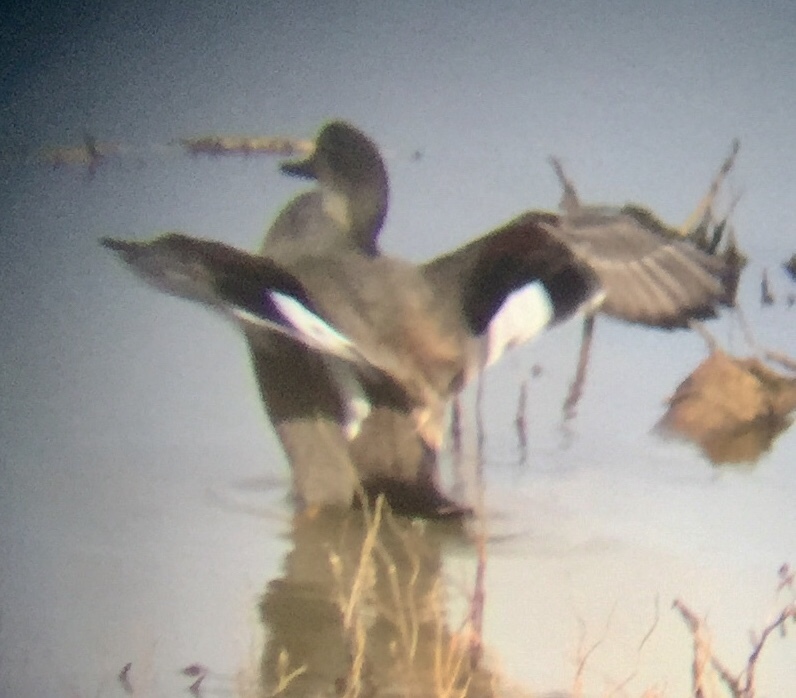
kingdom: Animalia
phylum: Chordata
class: Aves
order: Anseriformes
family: Anatidae
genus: Mareca
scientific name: Mareca strepera
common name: Gadwall
